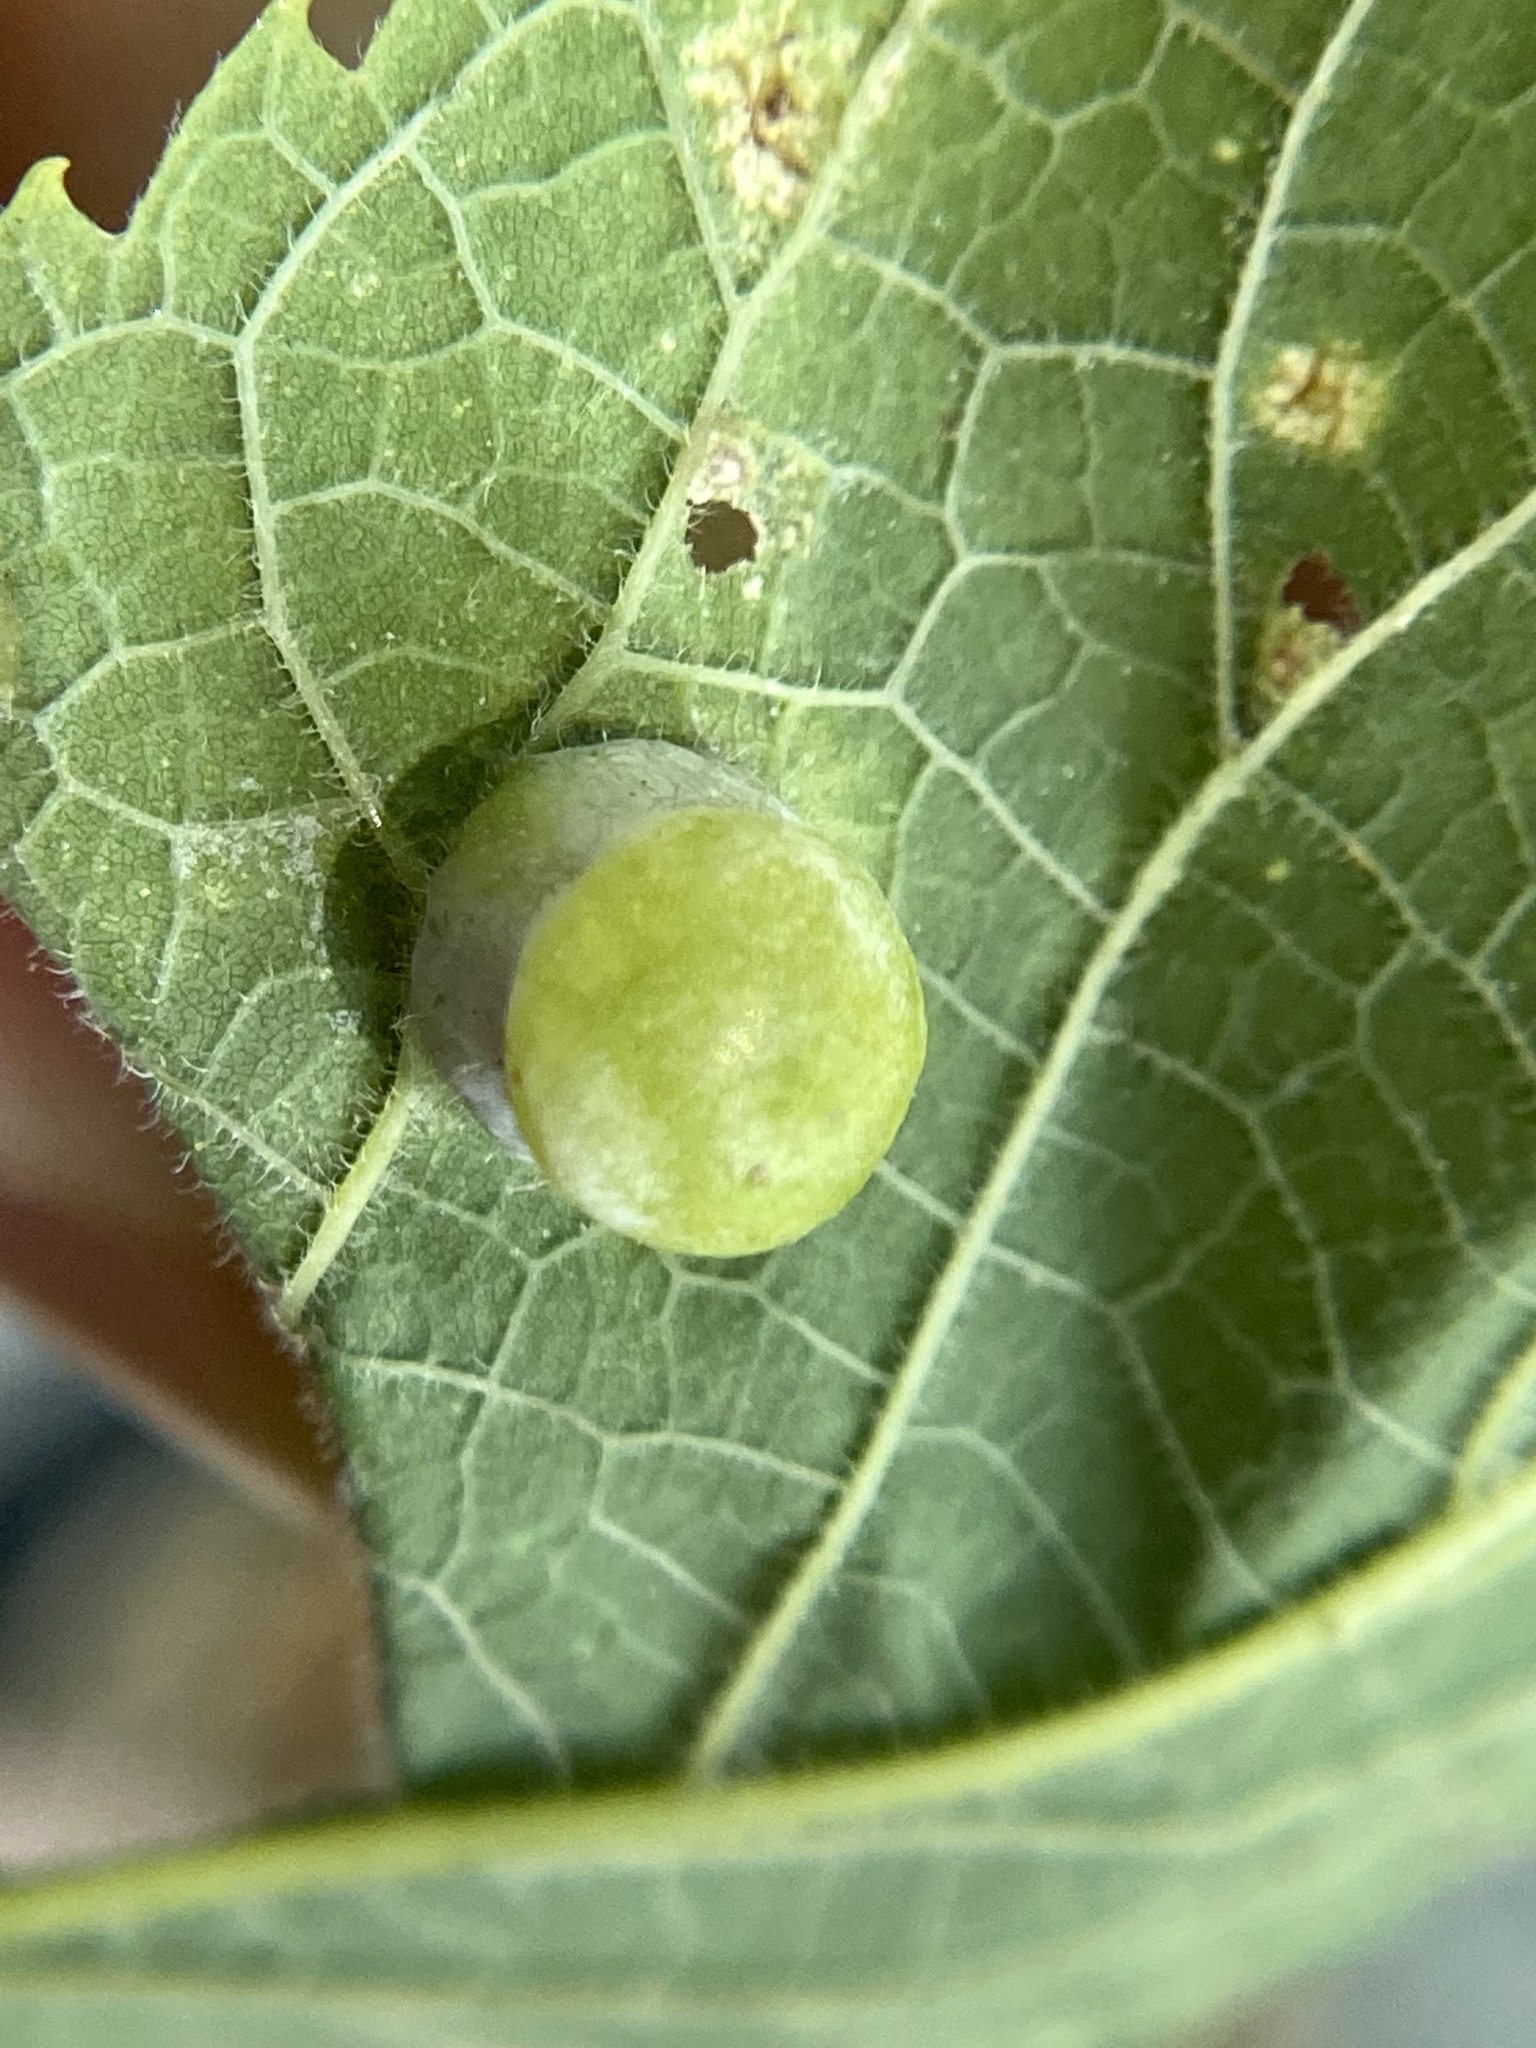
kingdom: Animalia
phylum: Arthropoda
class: Insecta
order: Hemiptera
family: Aphalaridae
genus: Pachypsylla
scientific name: Pachypsylla celtidismamma
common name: Hackberry nipplegall psyllid
